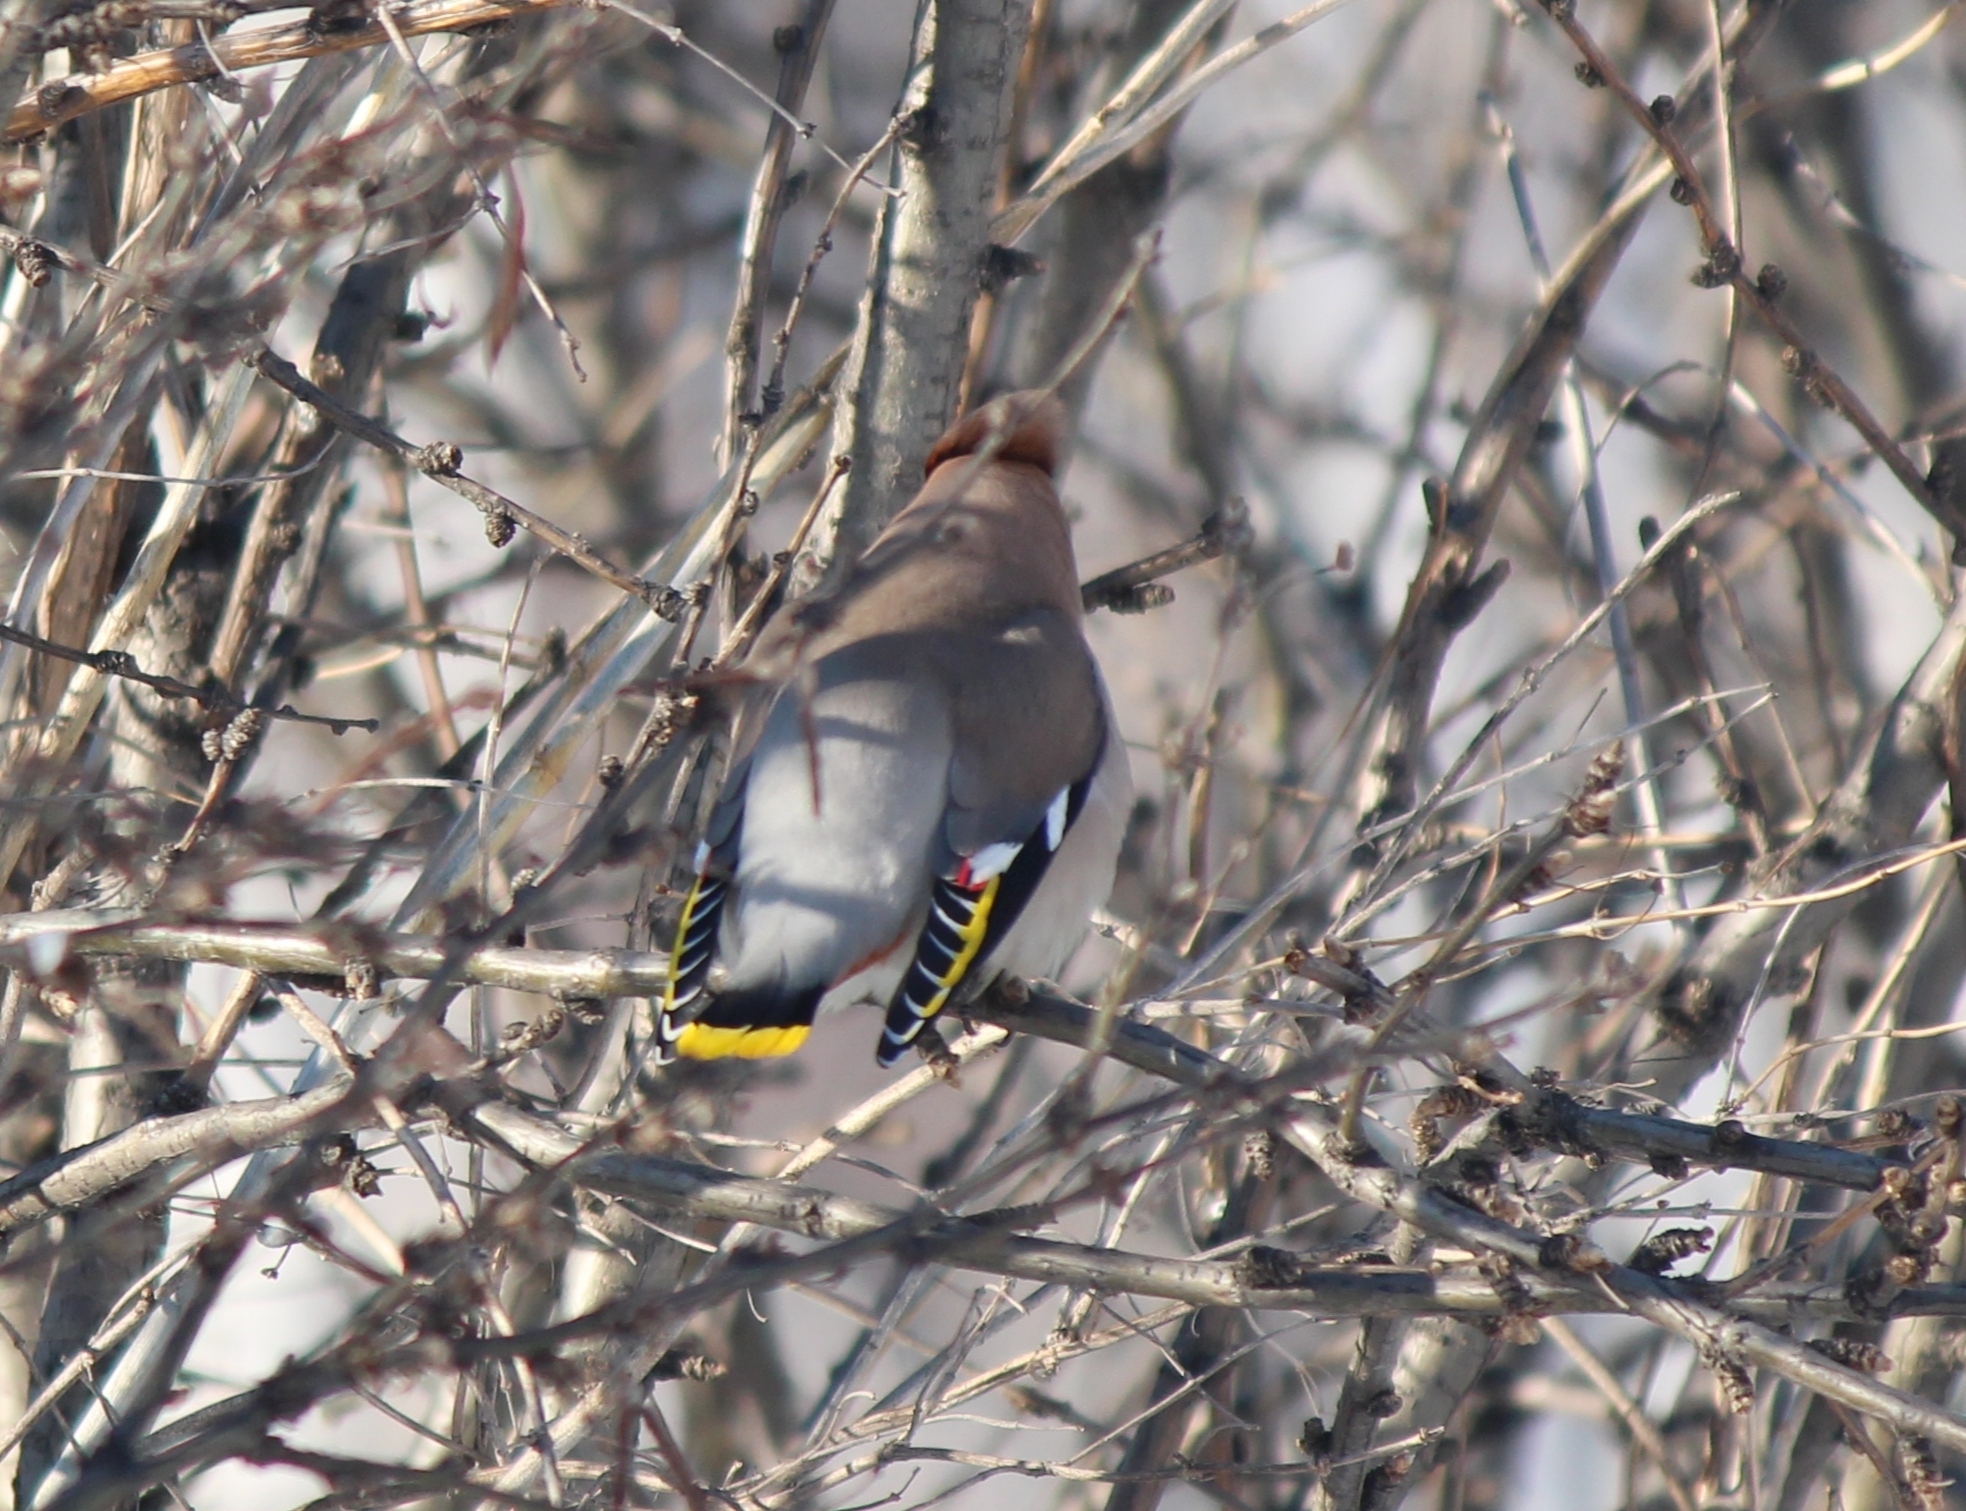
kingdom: Animalia
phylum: Chordata
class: Aves
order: Passeriformes
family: Bombycillidae
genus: Bombycilla
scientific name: Bombycilla garrulus
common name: Bohemian waxwing
